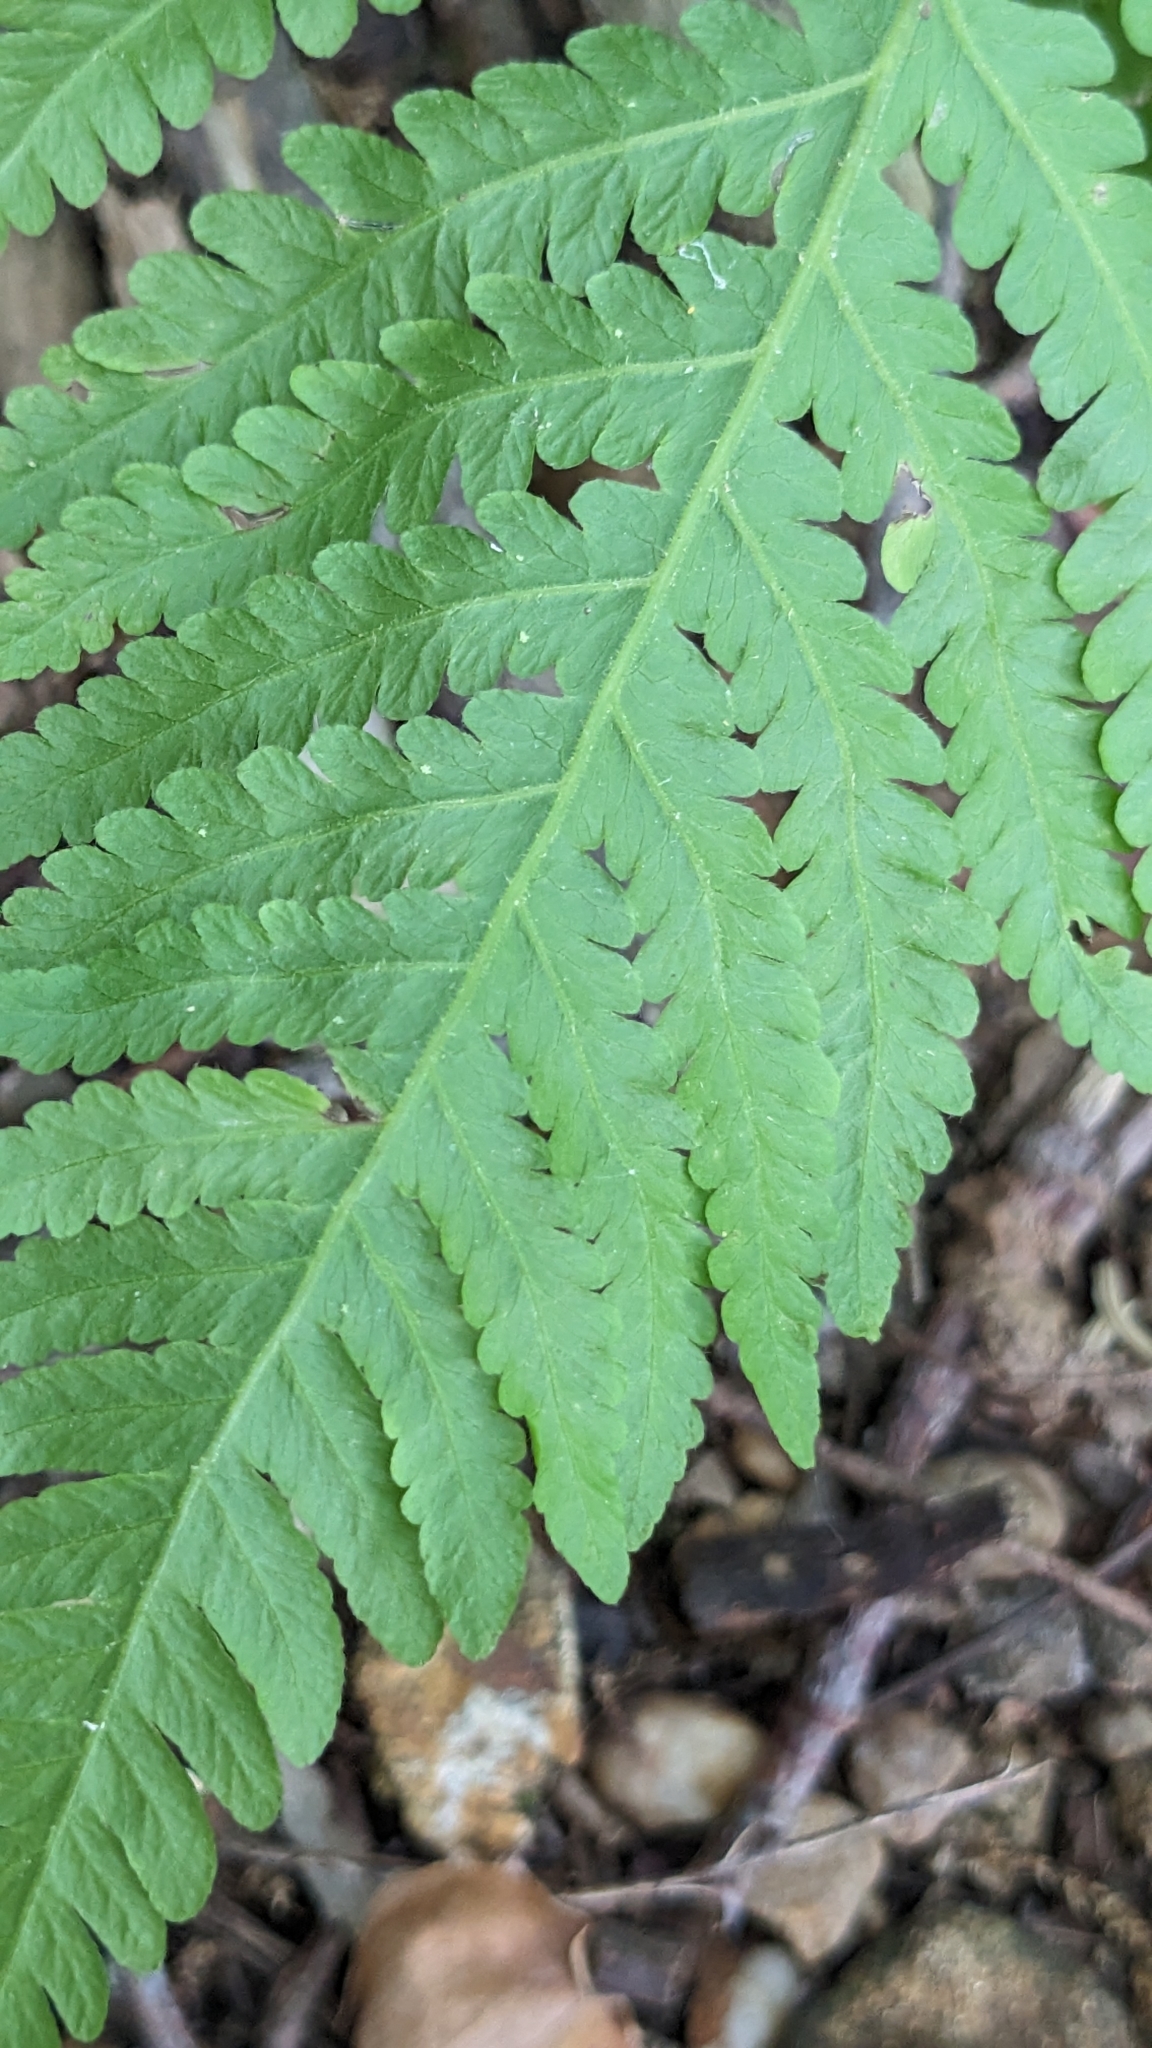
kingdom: Plantae
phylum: Tracheophyta
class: Polypodiopsida
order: Polypodiales
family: Thelypteridaceae
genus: Phegopteris
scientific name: Phegopteris hexagonoptera
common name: Broad beech fern
